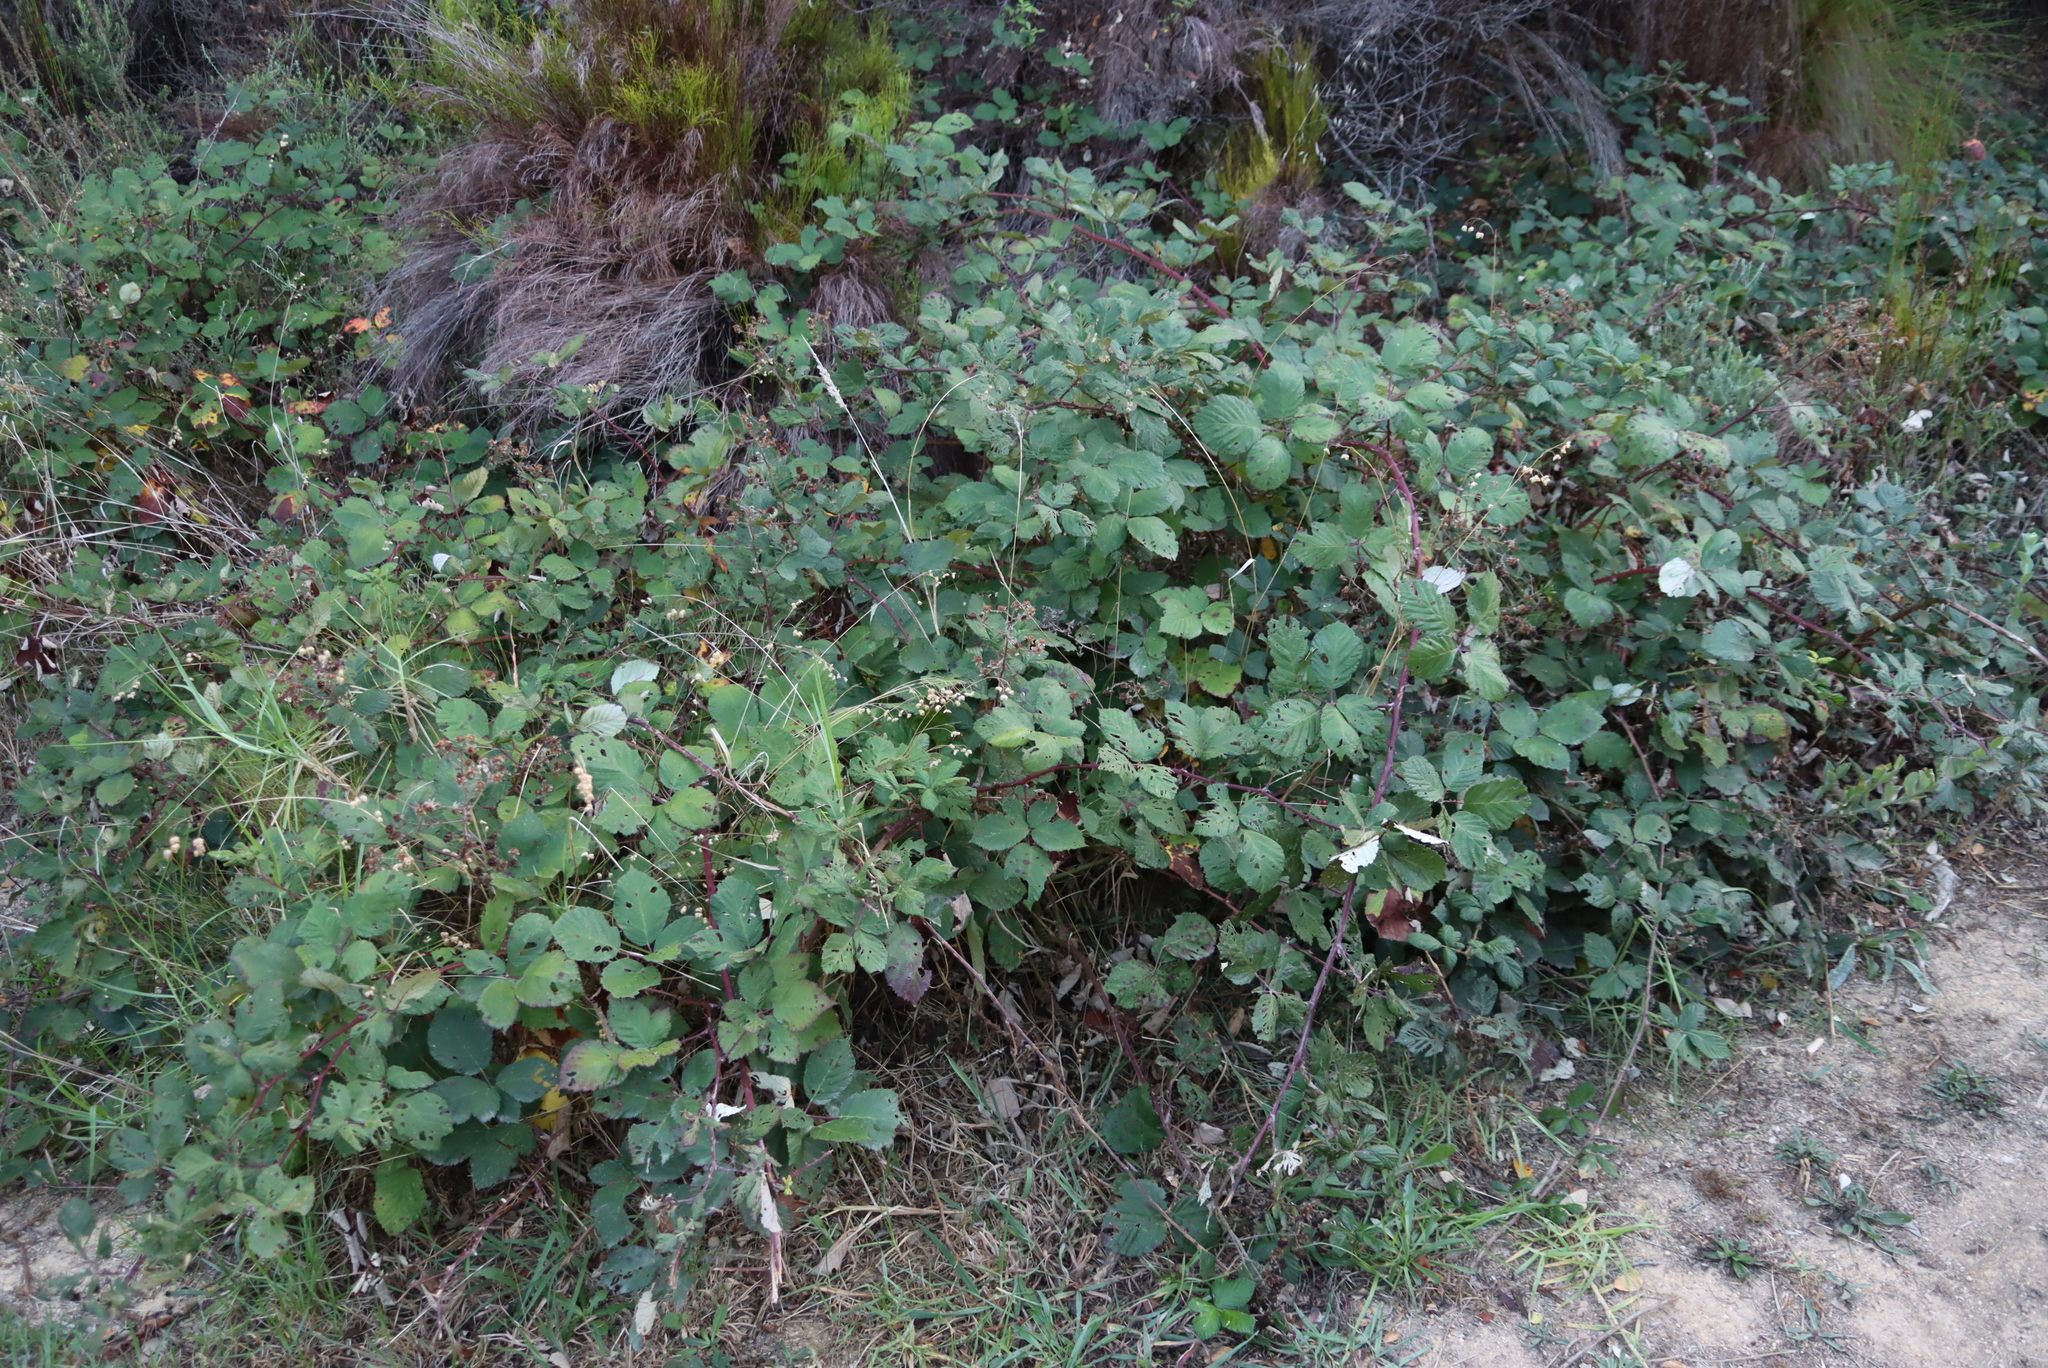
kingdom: Plantae
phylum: Tracheophyta
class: Magnoliopsida
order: Rosales
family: Rosaceae
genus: Rubus
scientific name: Rubus armeniacus
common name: Himalayan blackberry
